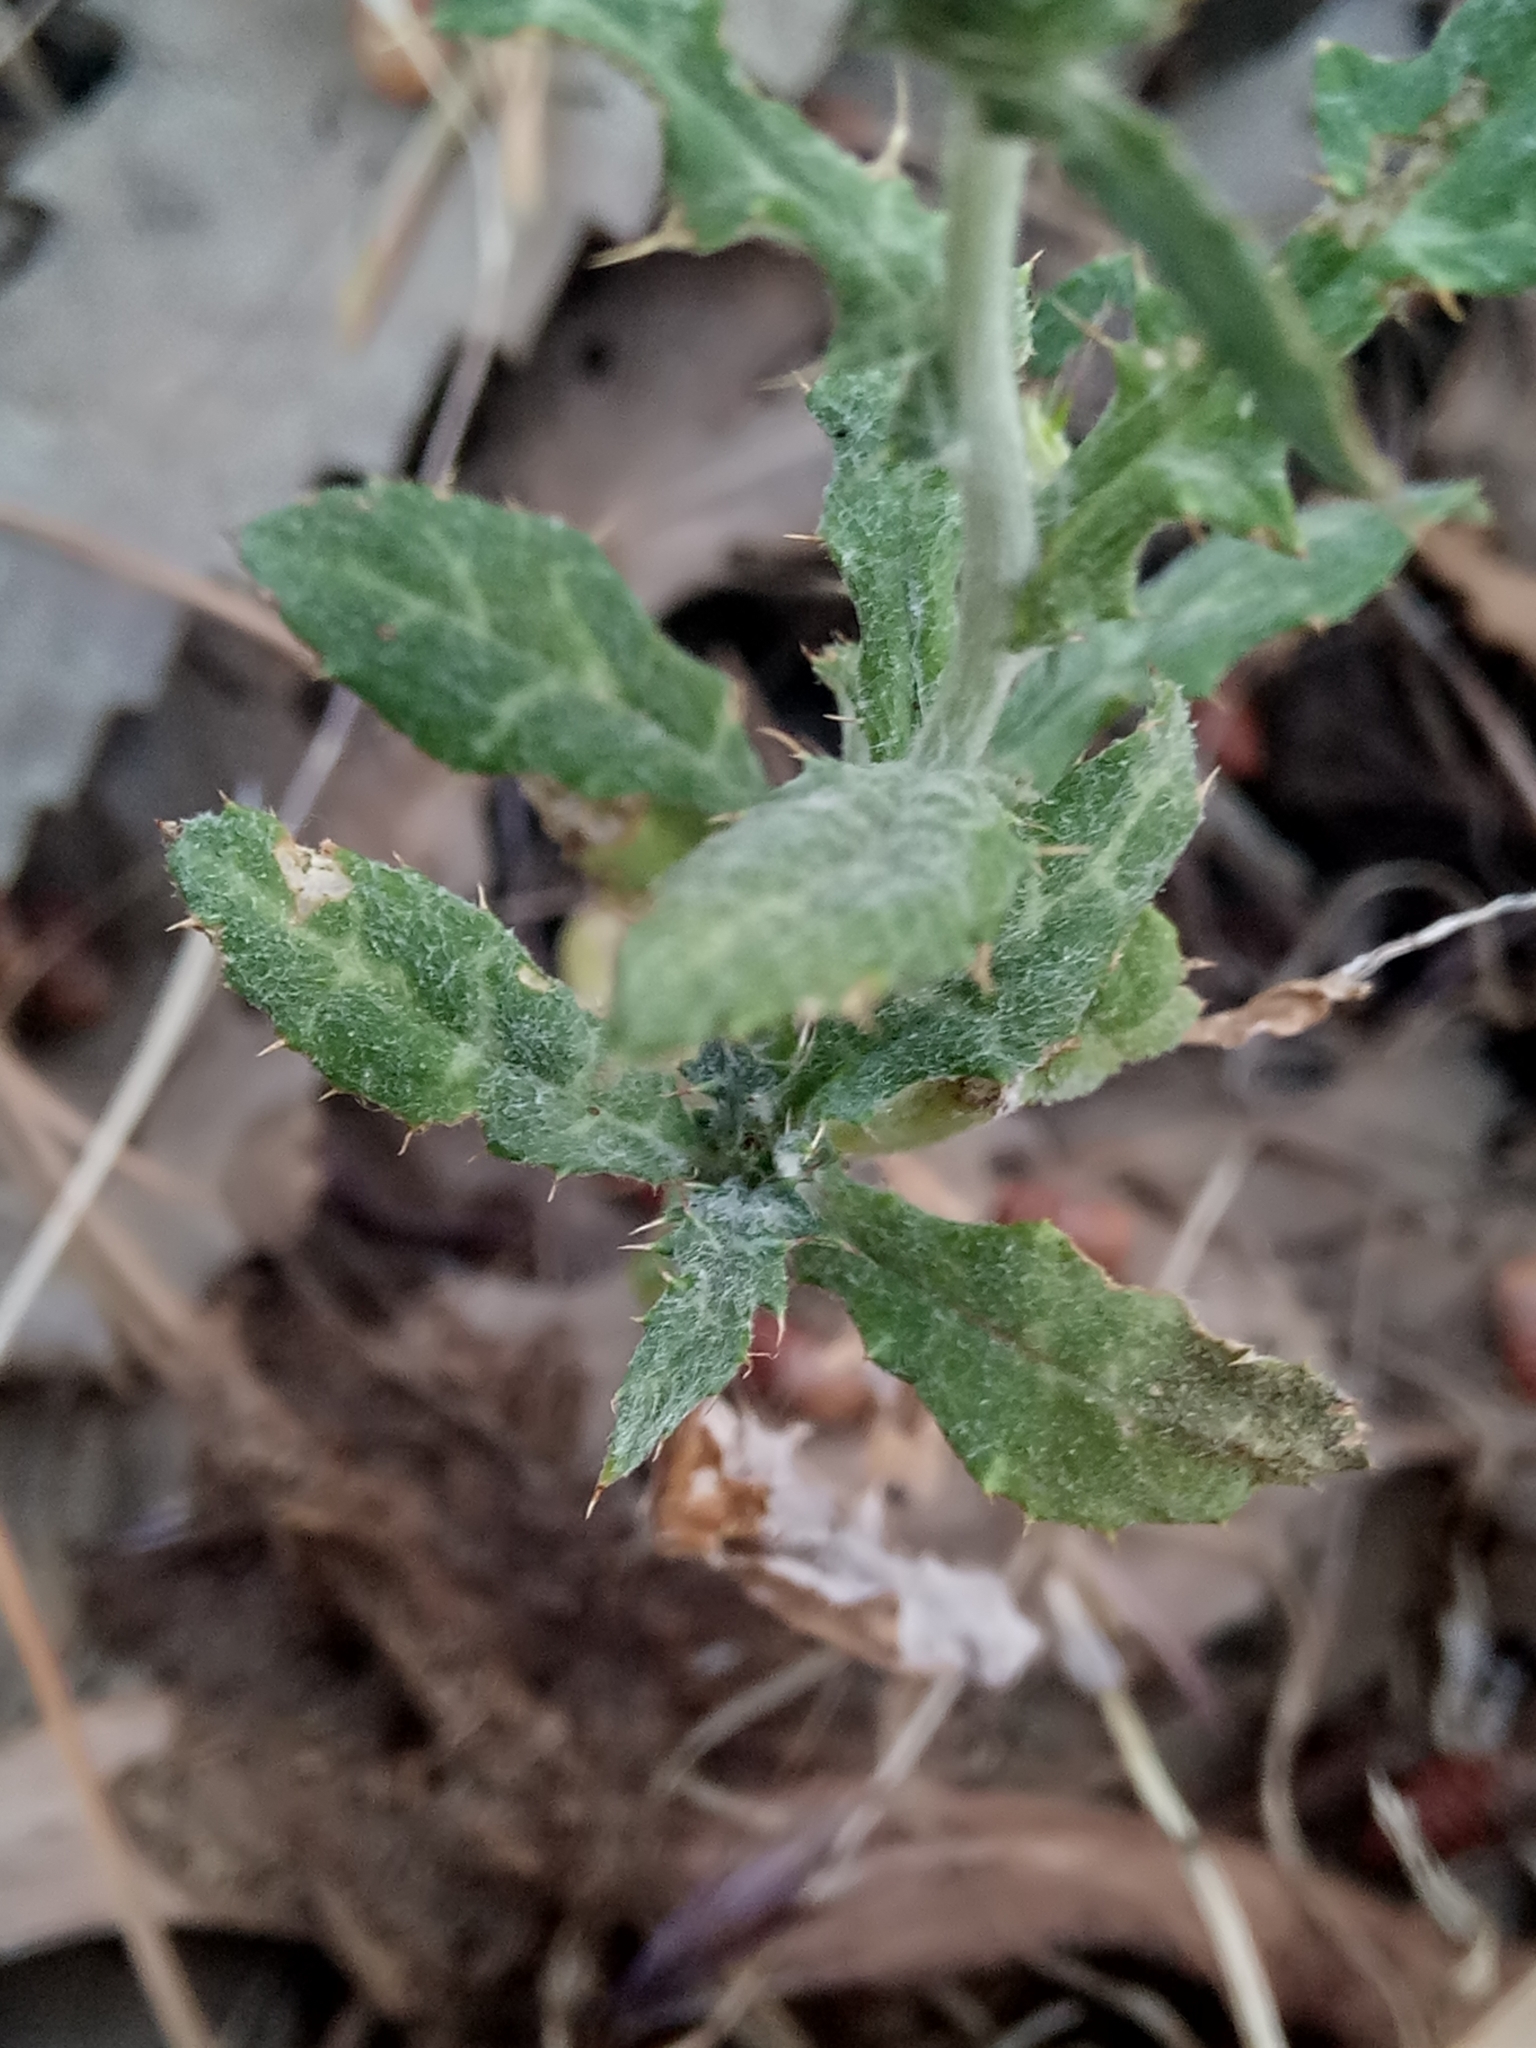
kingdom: Plantae
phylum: Tracheophyta
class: Magnoliopsida
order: Asterales
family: Asteraceae
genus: Galactites
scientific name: Galactites tomentosa
